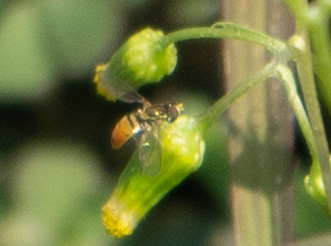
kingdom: Animalia
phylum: Arthropoda
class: Insecta
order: Diptera
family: Syrphidae
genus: Toxomerus
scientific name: Toxomerus marginatus
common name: Syrphid fly
